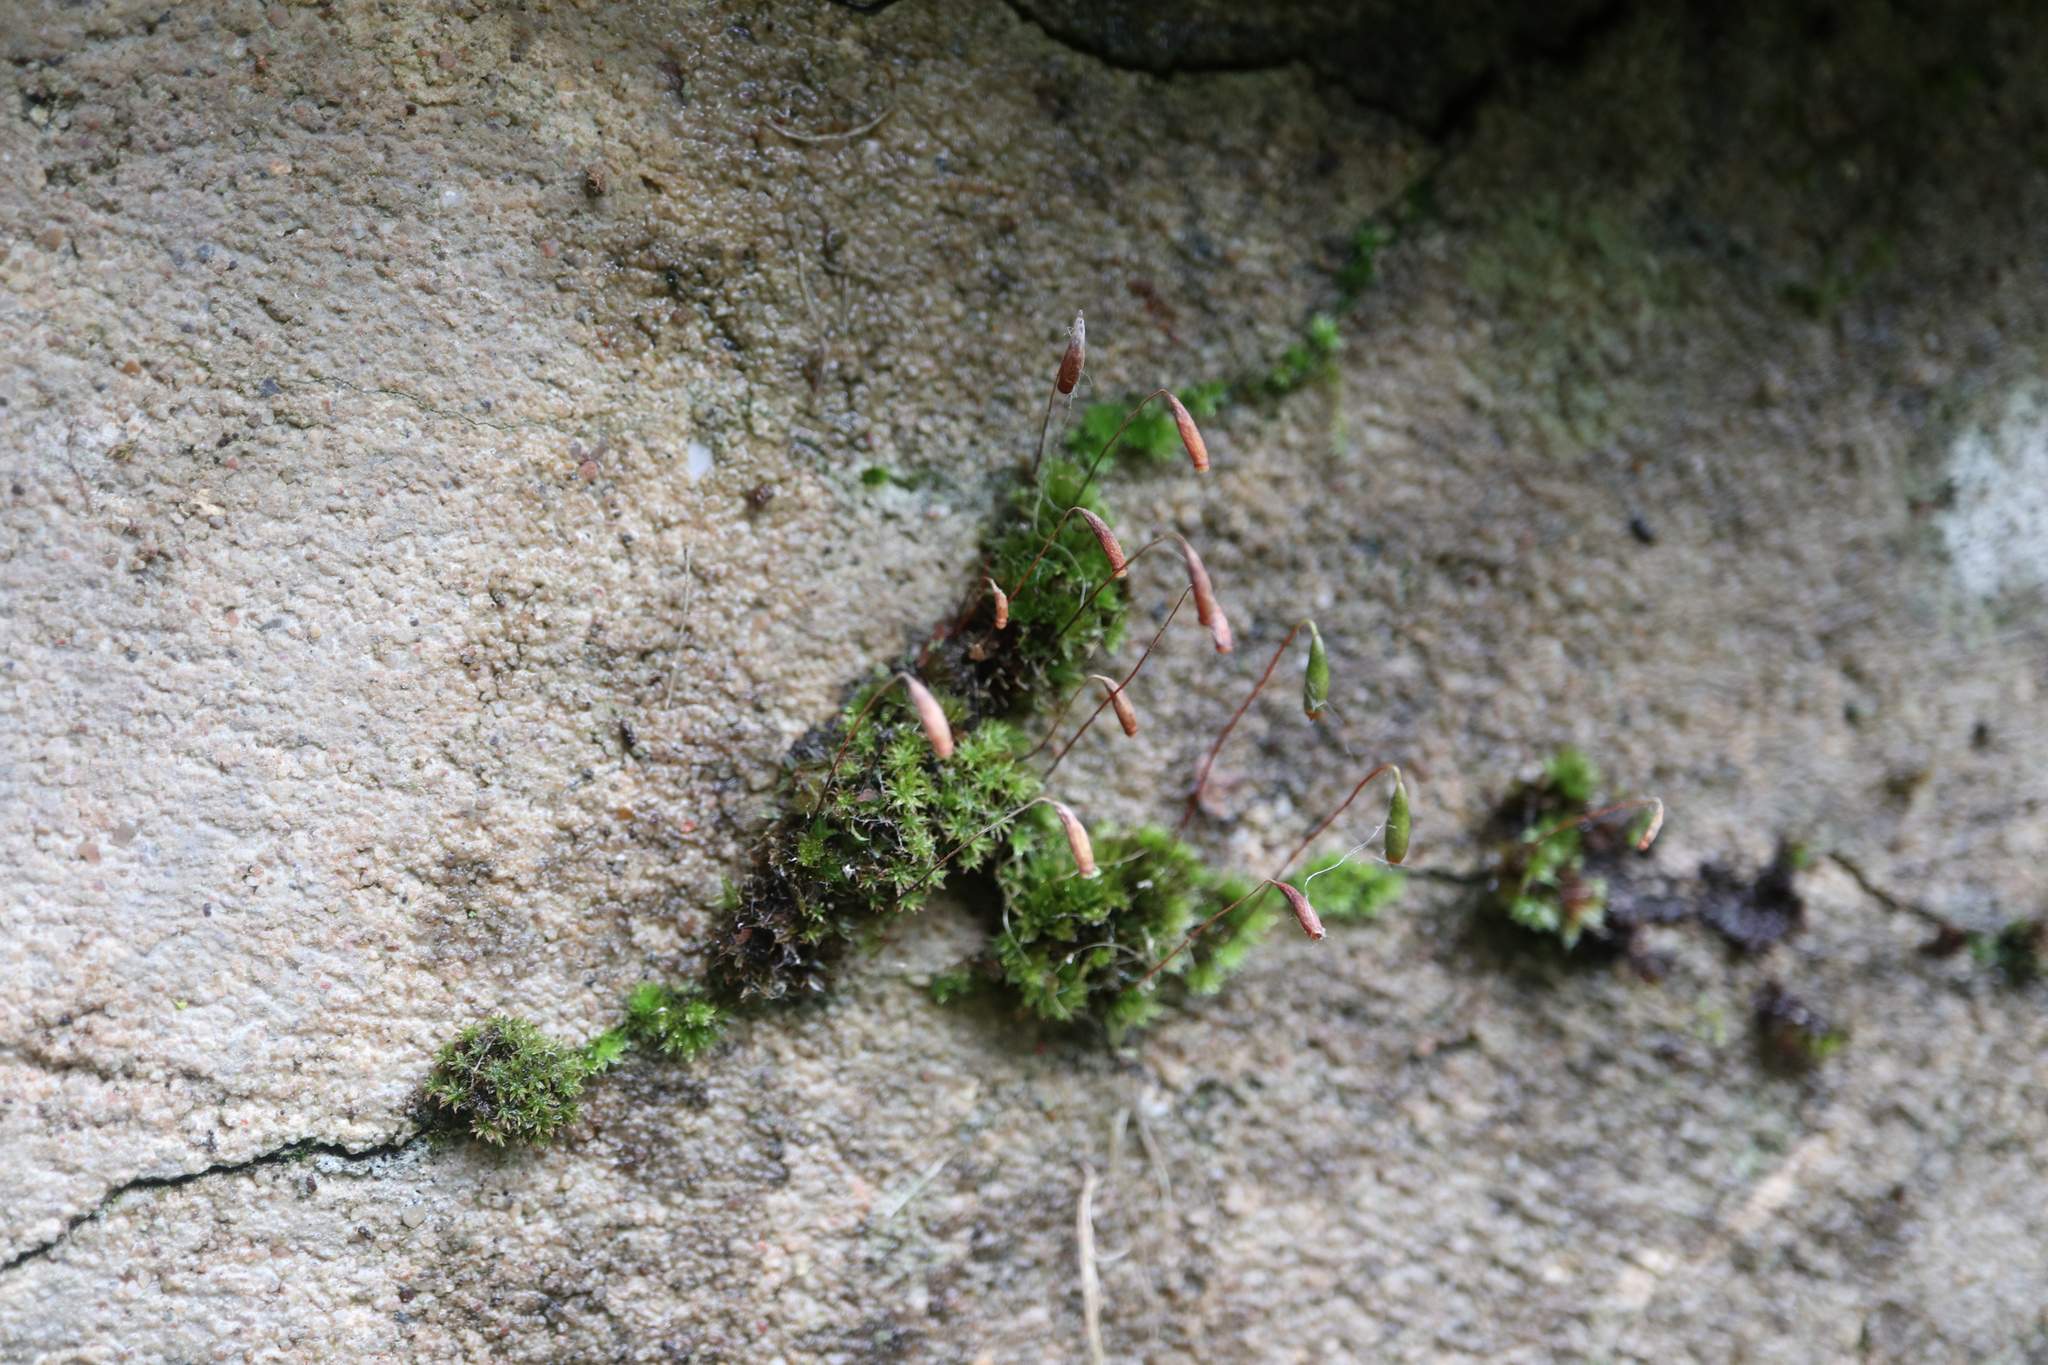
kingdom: Plantae
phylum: Bryophyta
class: Bryopsida
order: Bryales
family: Bryaceae
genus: Rosulabryum
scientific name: Rosulabryum capillare
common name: Capillary thread-moss
